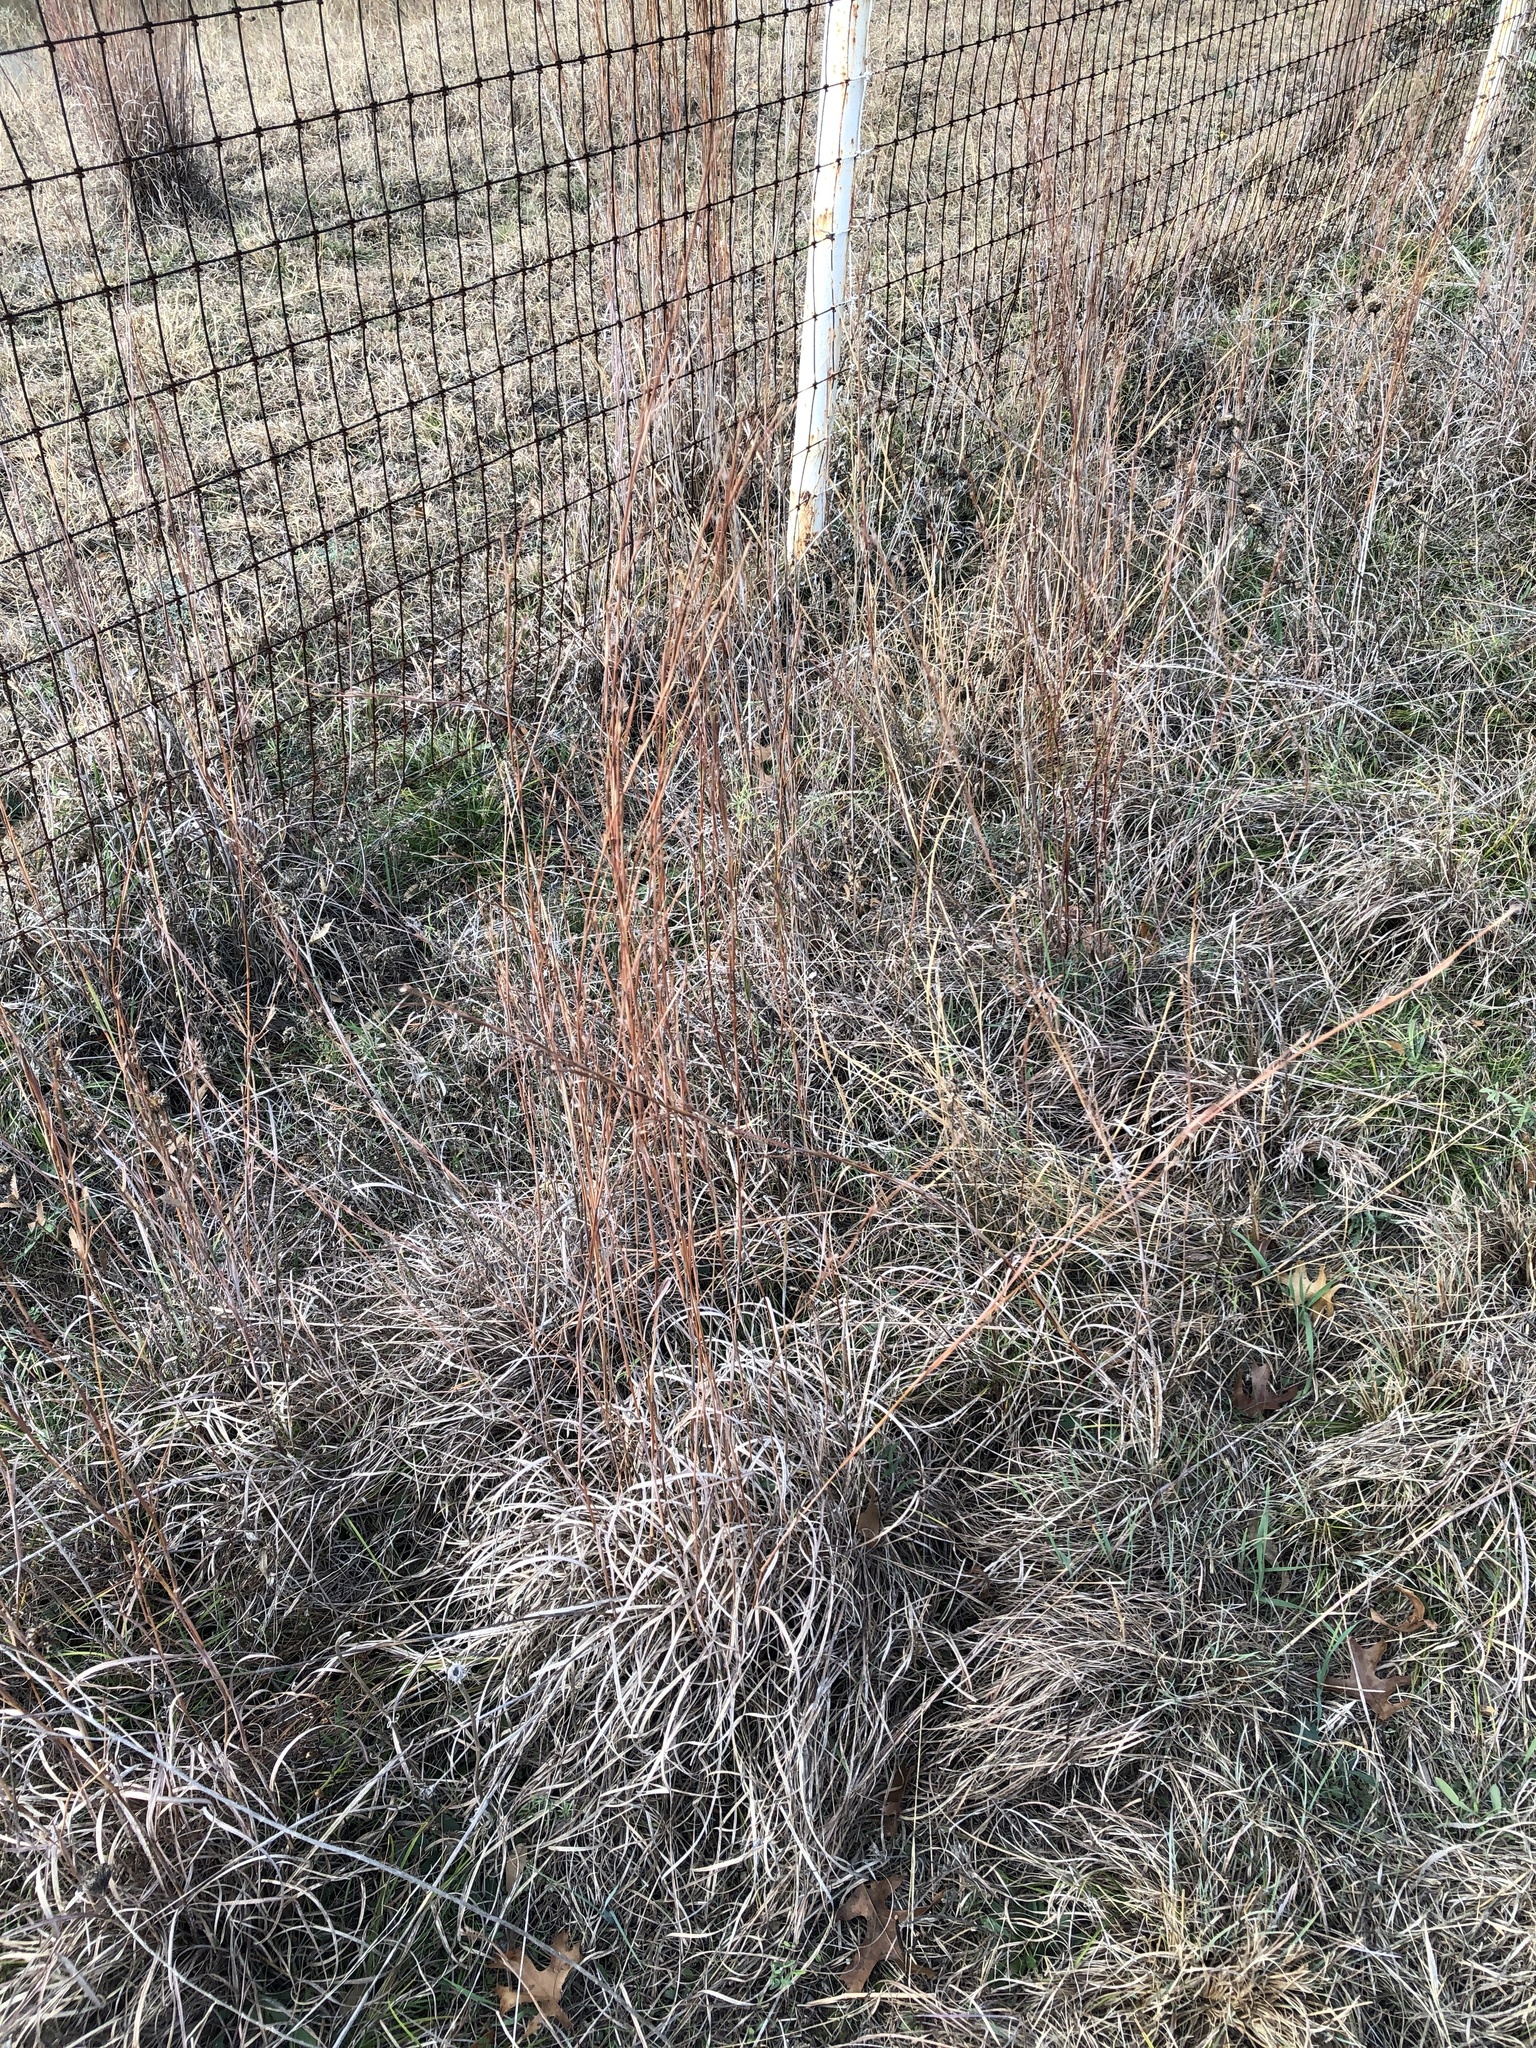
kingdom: Plantae
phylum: Tracheophyta
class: Liliopsida
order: Poales
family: Poaceae
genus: Schizachyrium
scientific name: Schizachyrium scoparium
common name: Little bluestem
